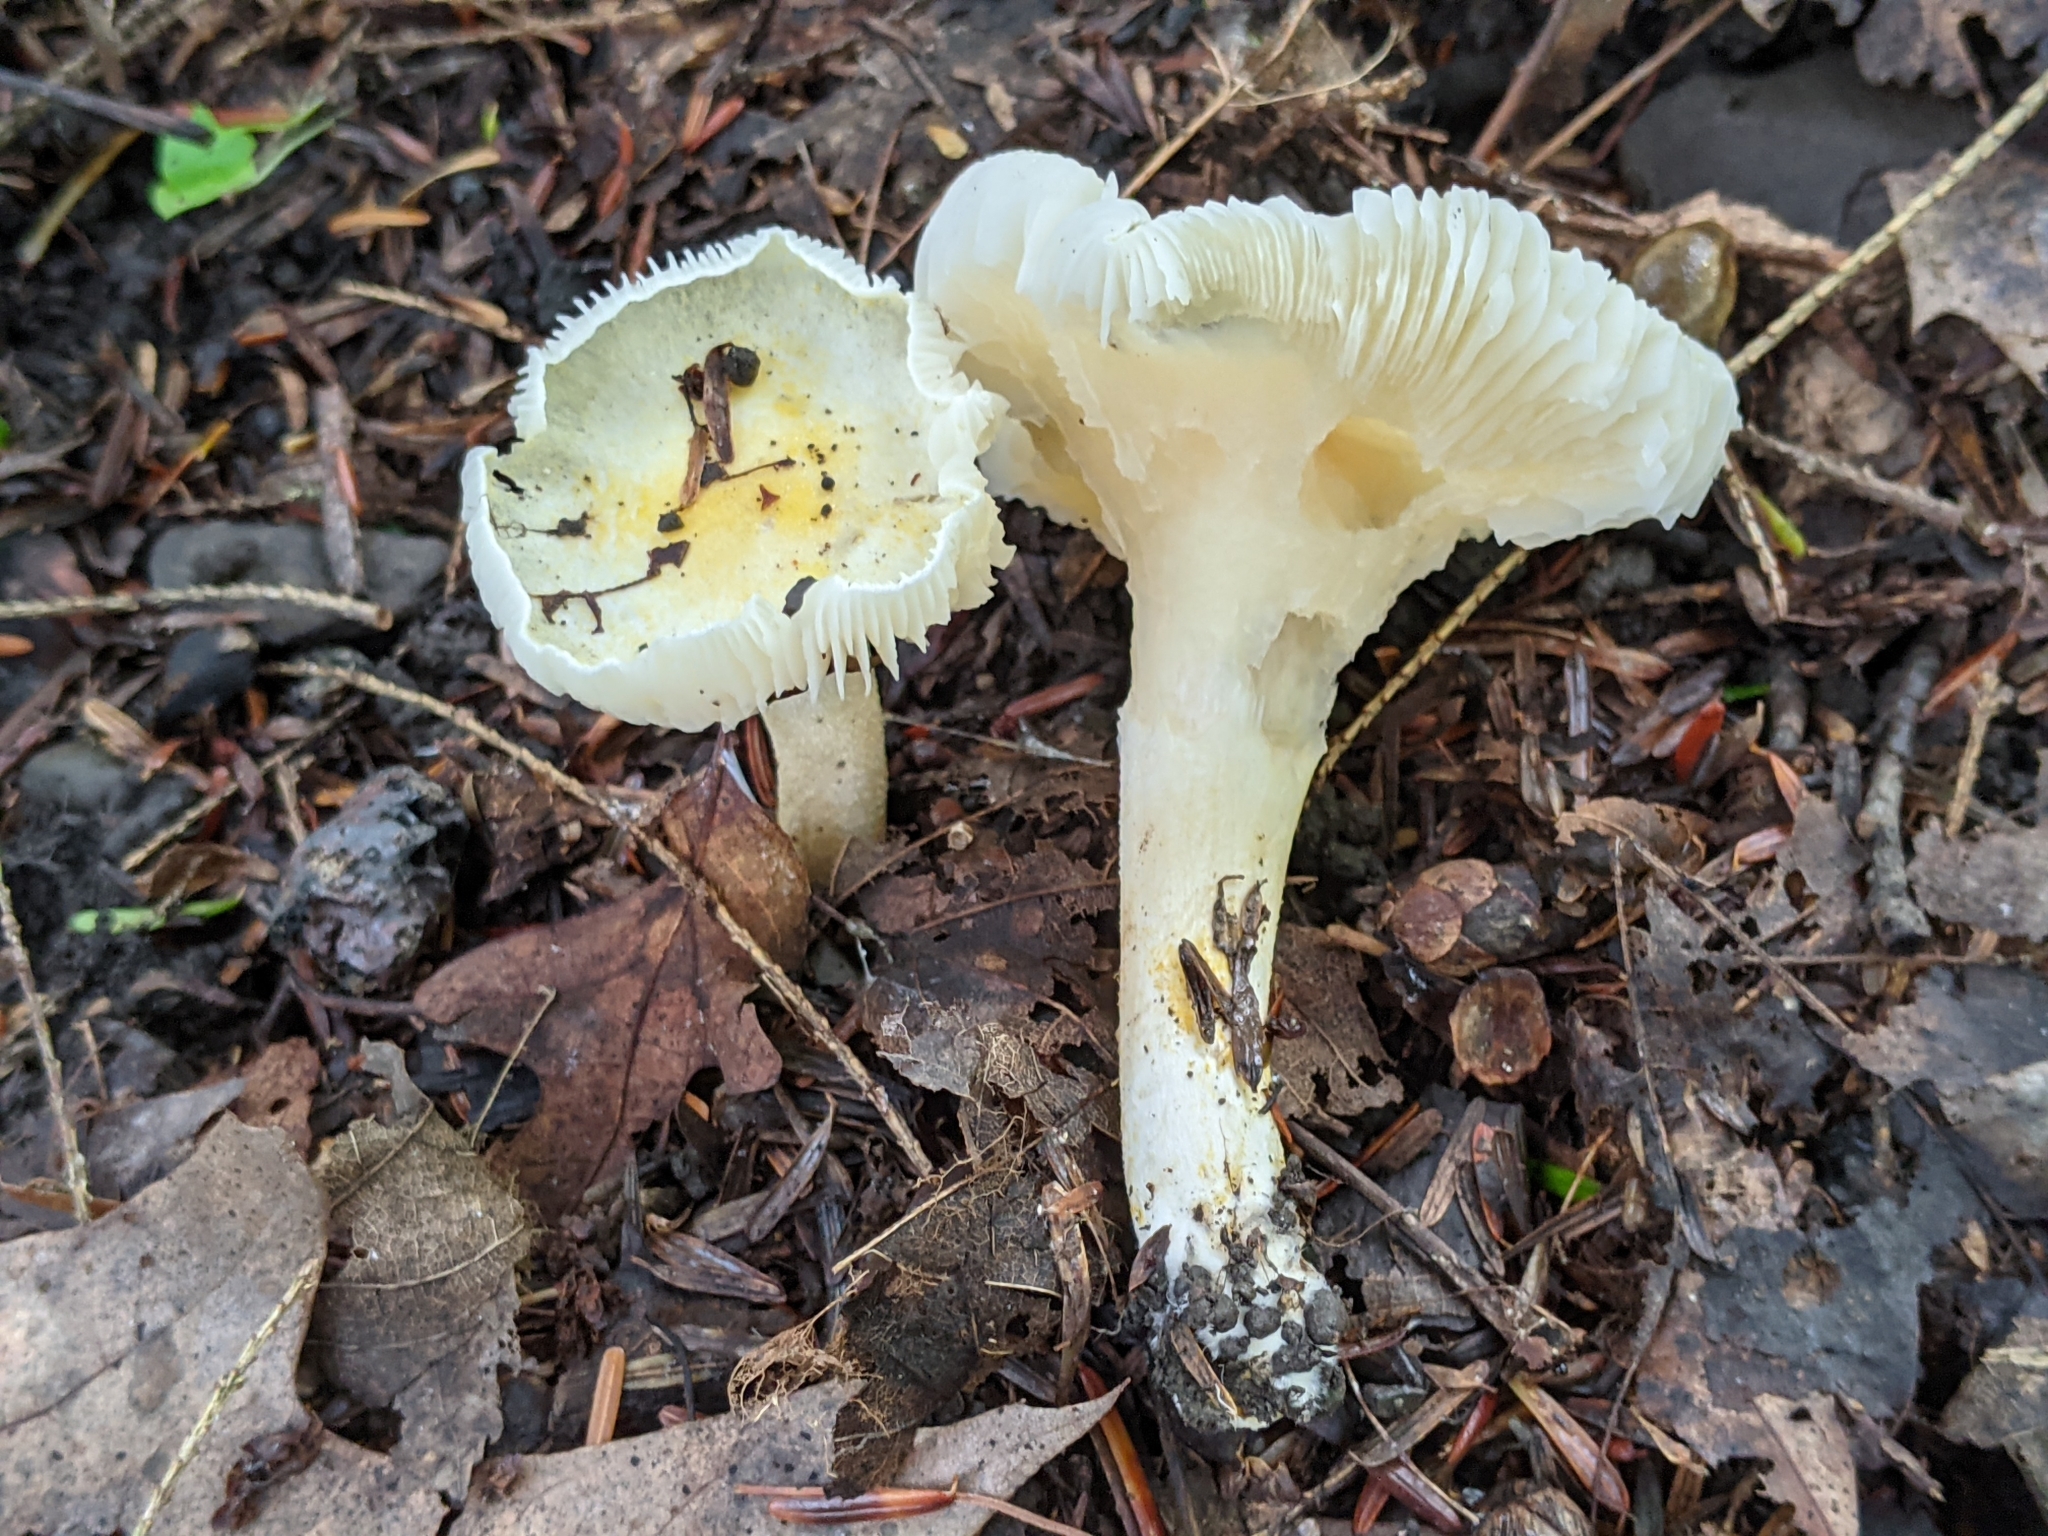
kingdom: Fungi
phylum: Basidiomycota
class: Agaricomycetes
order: Agaricales
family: Hygrophoraceae
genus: Hygrophorus
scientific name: Hygrophorus chrysodon
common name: Gold flecked woodwax
